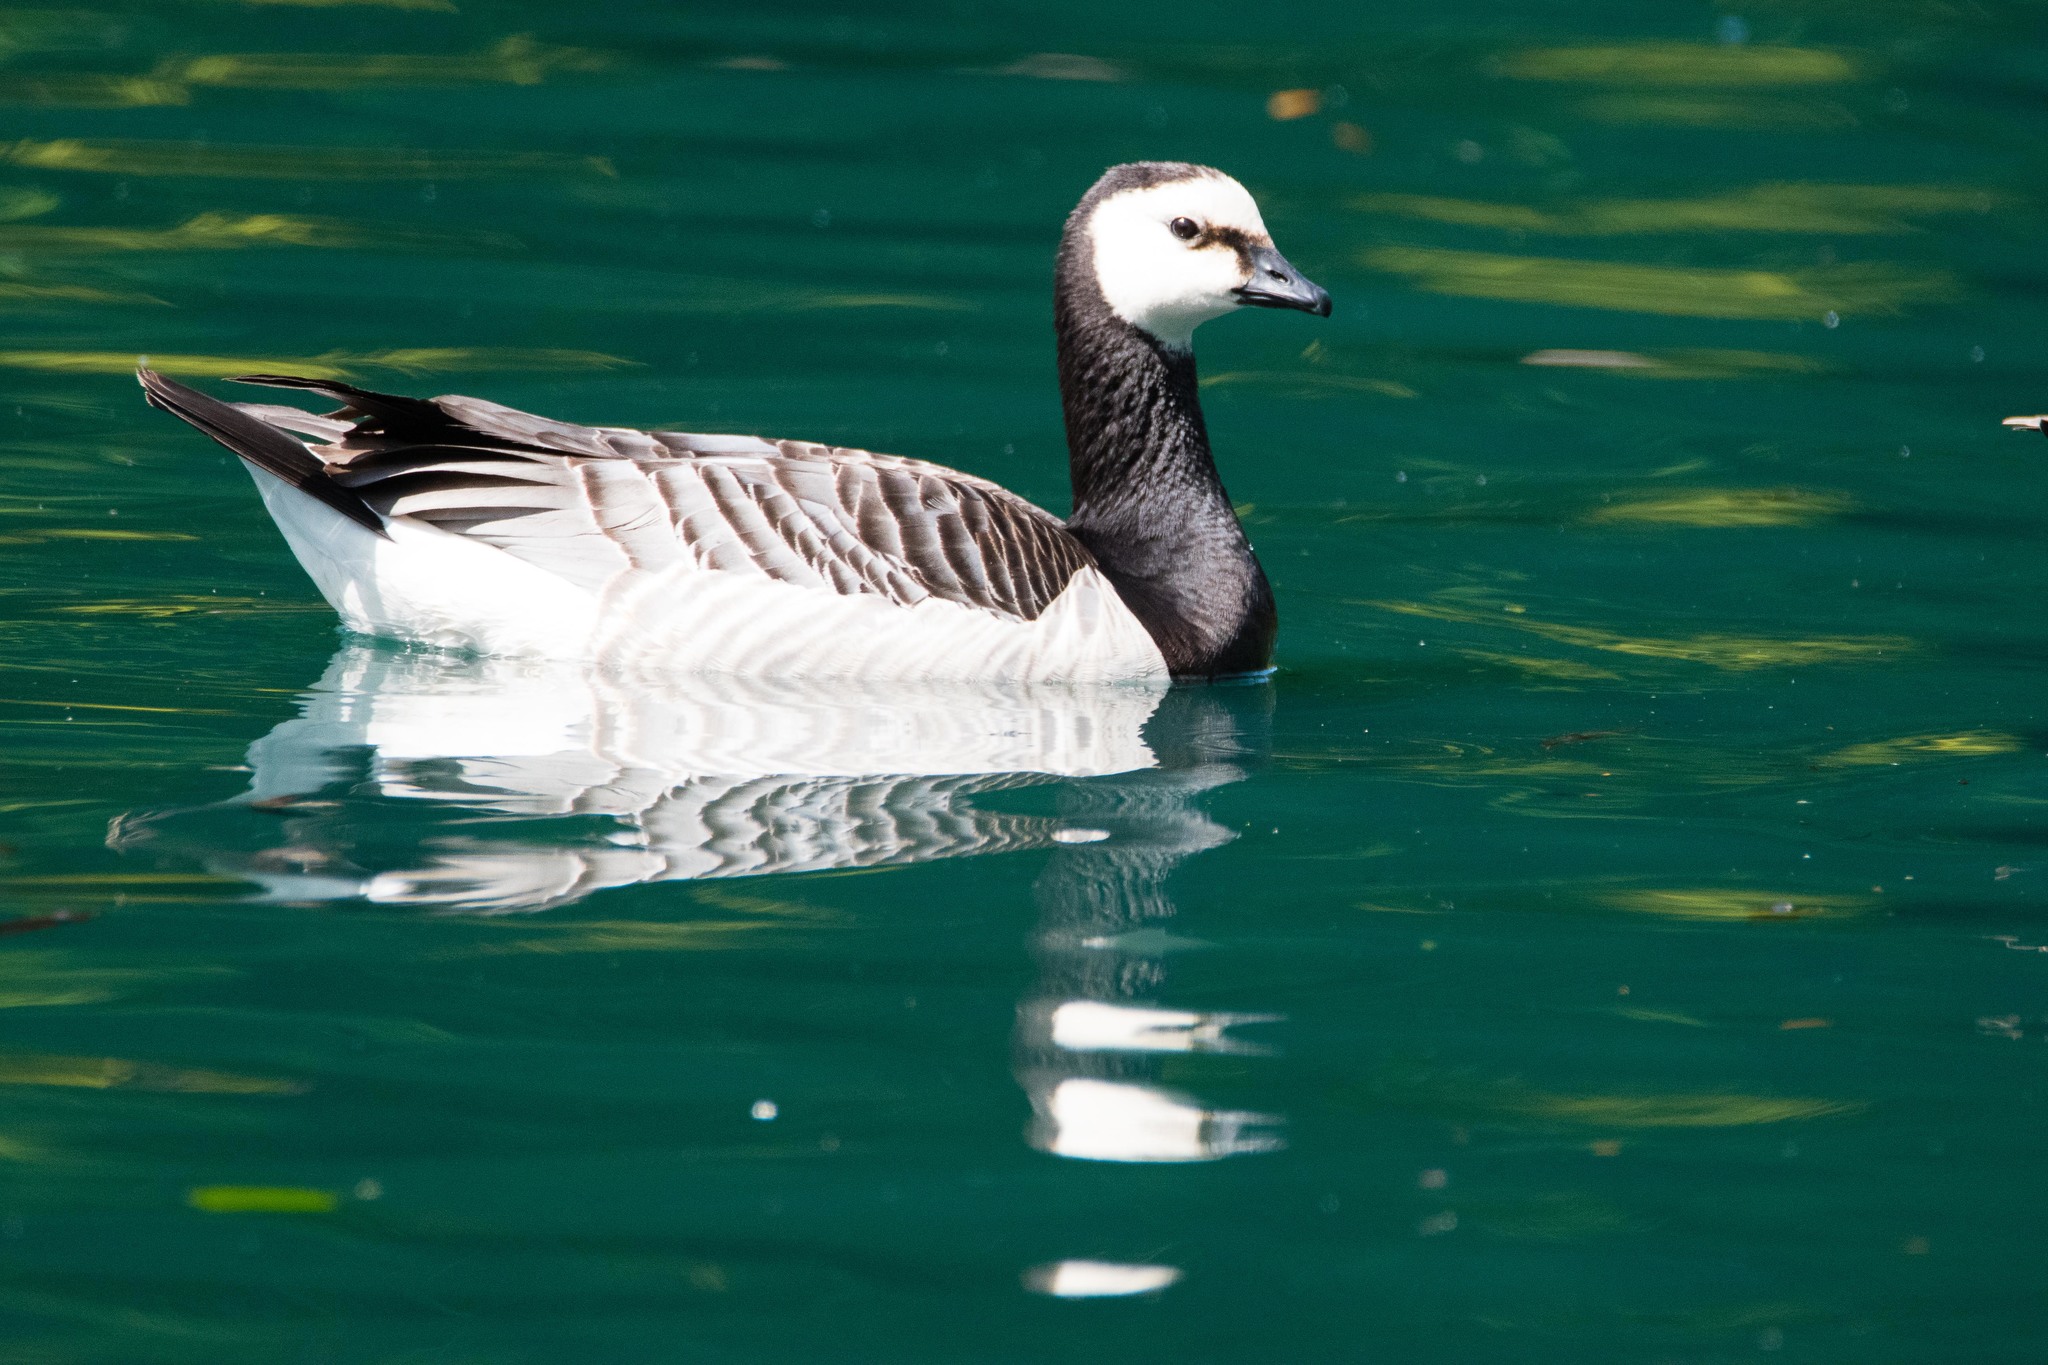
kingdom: Animalia
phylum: Chordata
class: Aves
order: Anseriformes
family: Anatidae
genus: Branta
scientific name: Branta leucopsis
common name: Barnacle goose
